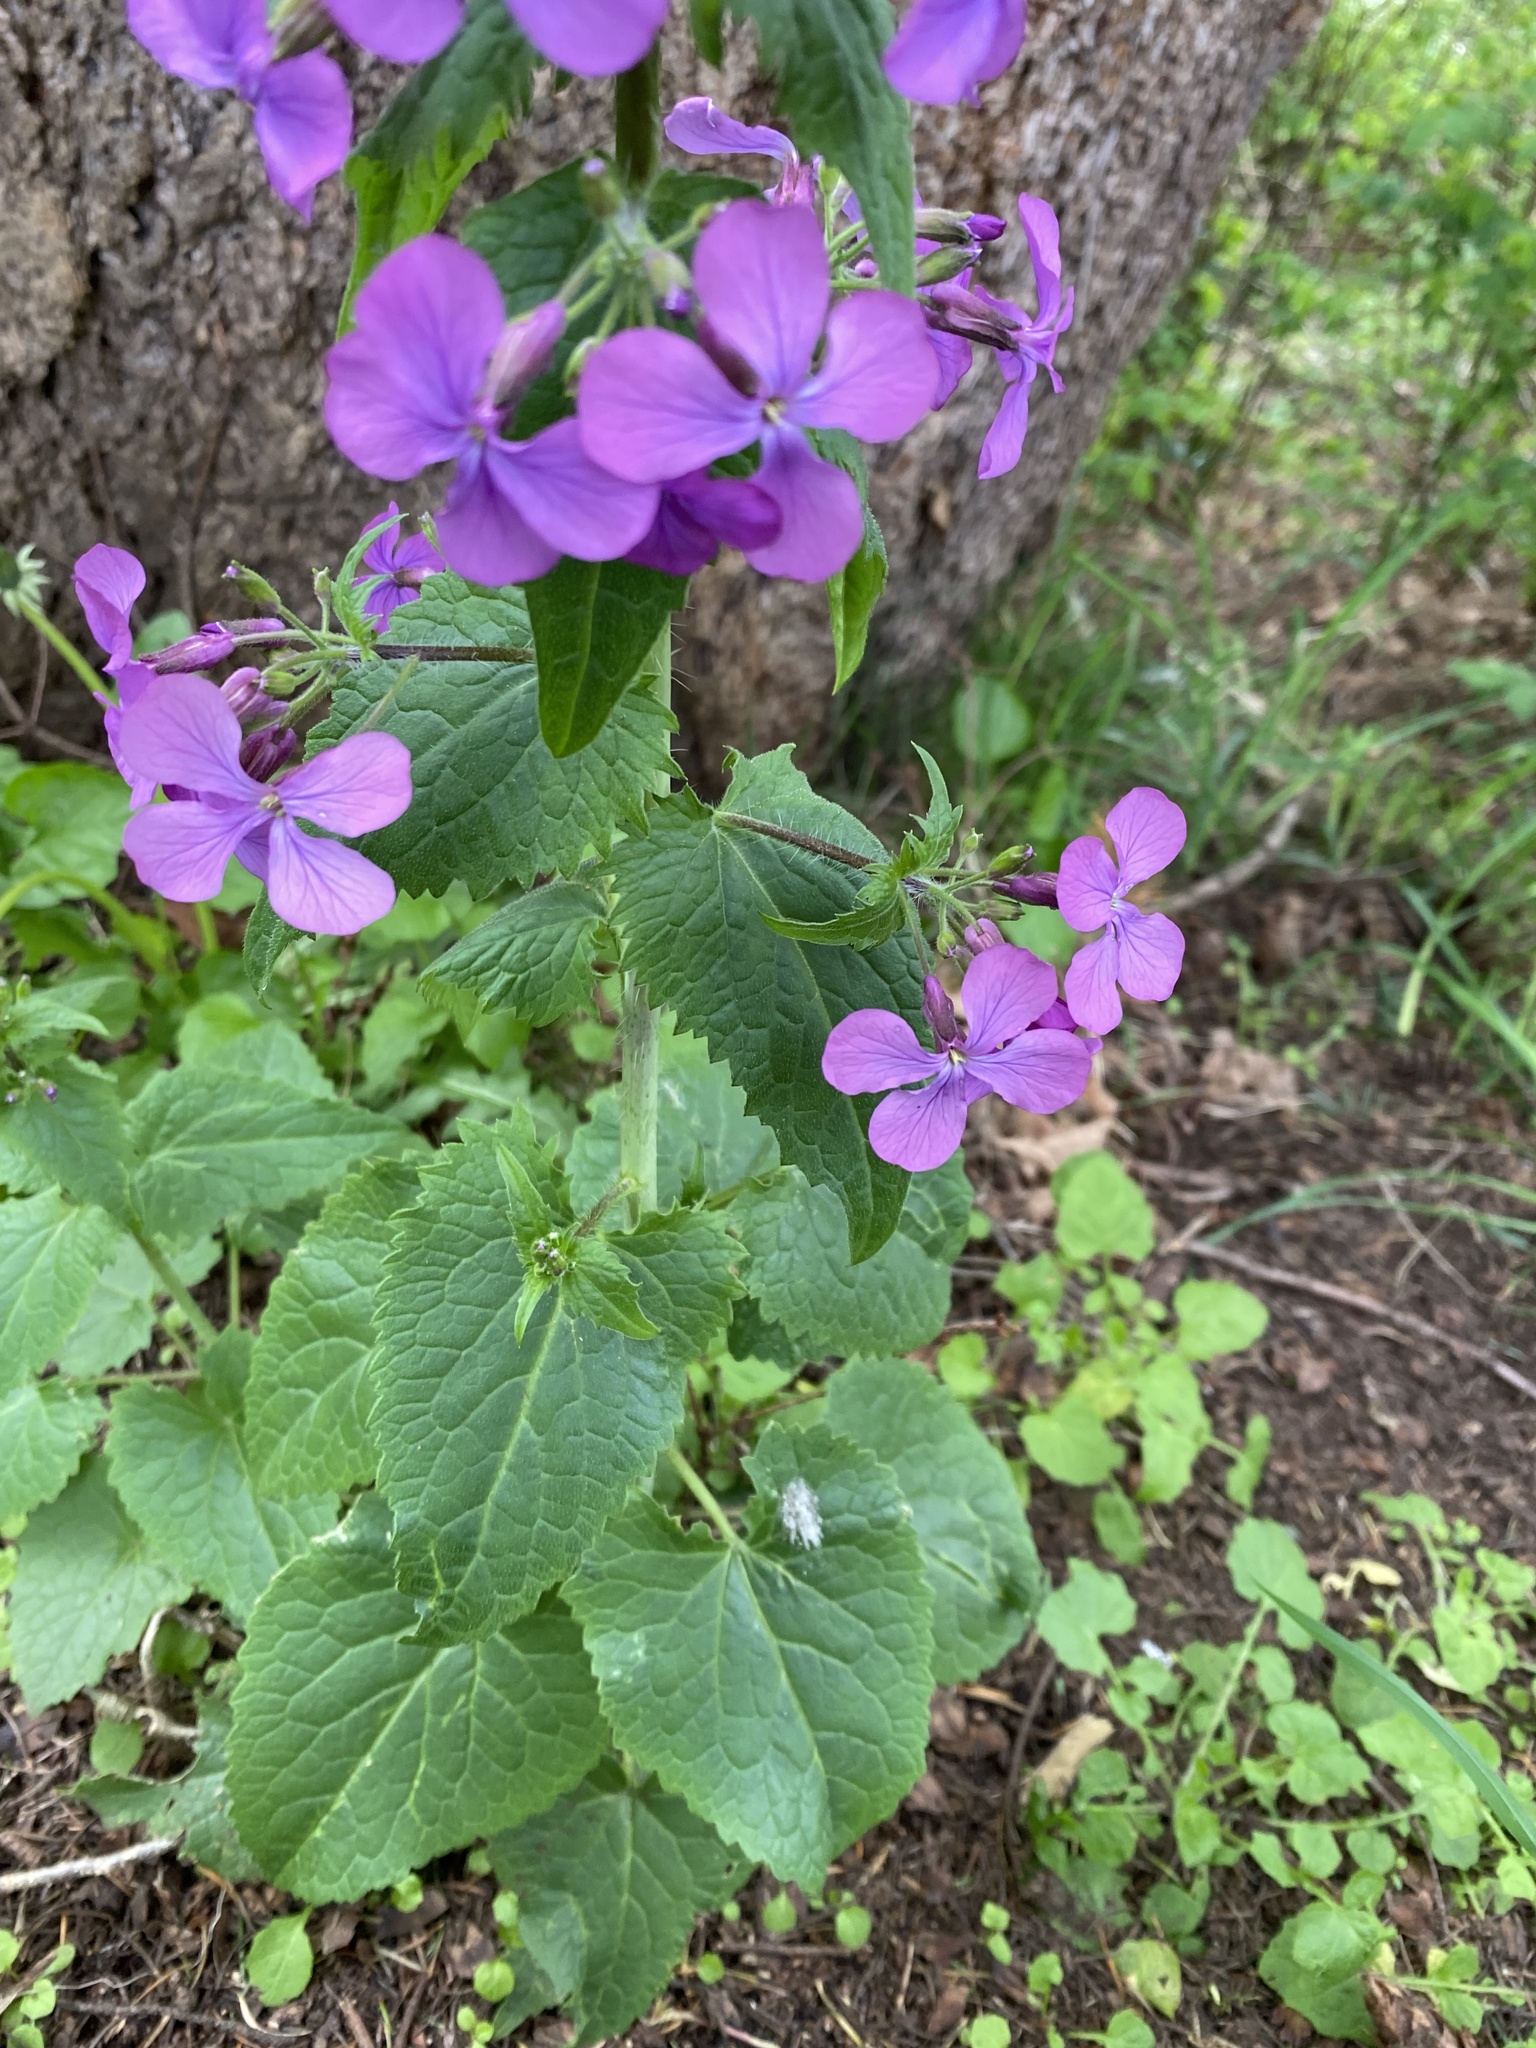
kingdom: Plantae
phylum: Tracheophyta
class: Magnoliopsida
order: Brassicales
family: Brassicaceae
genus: Lunaria
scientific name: Lunaria annua
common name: Honesty
